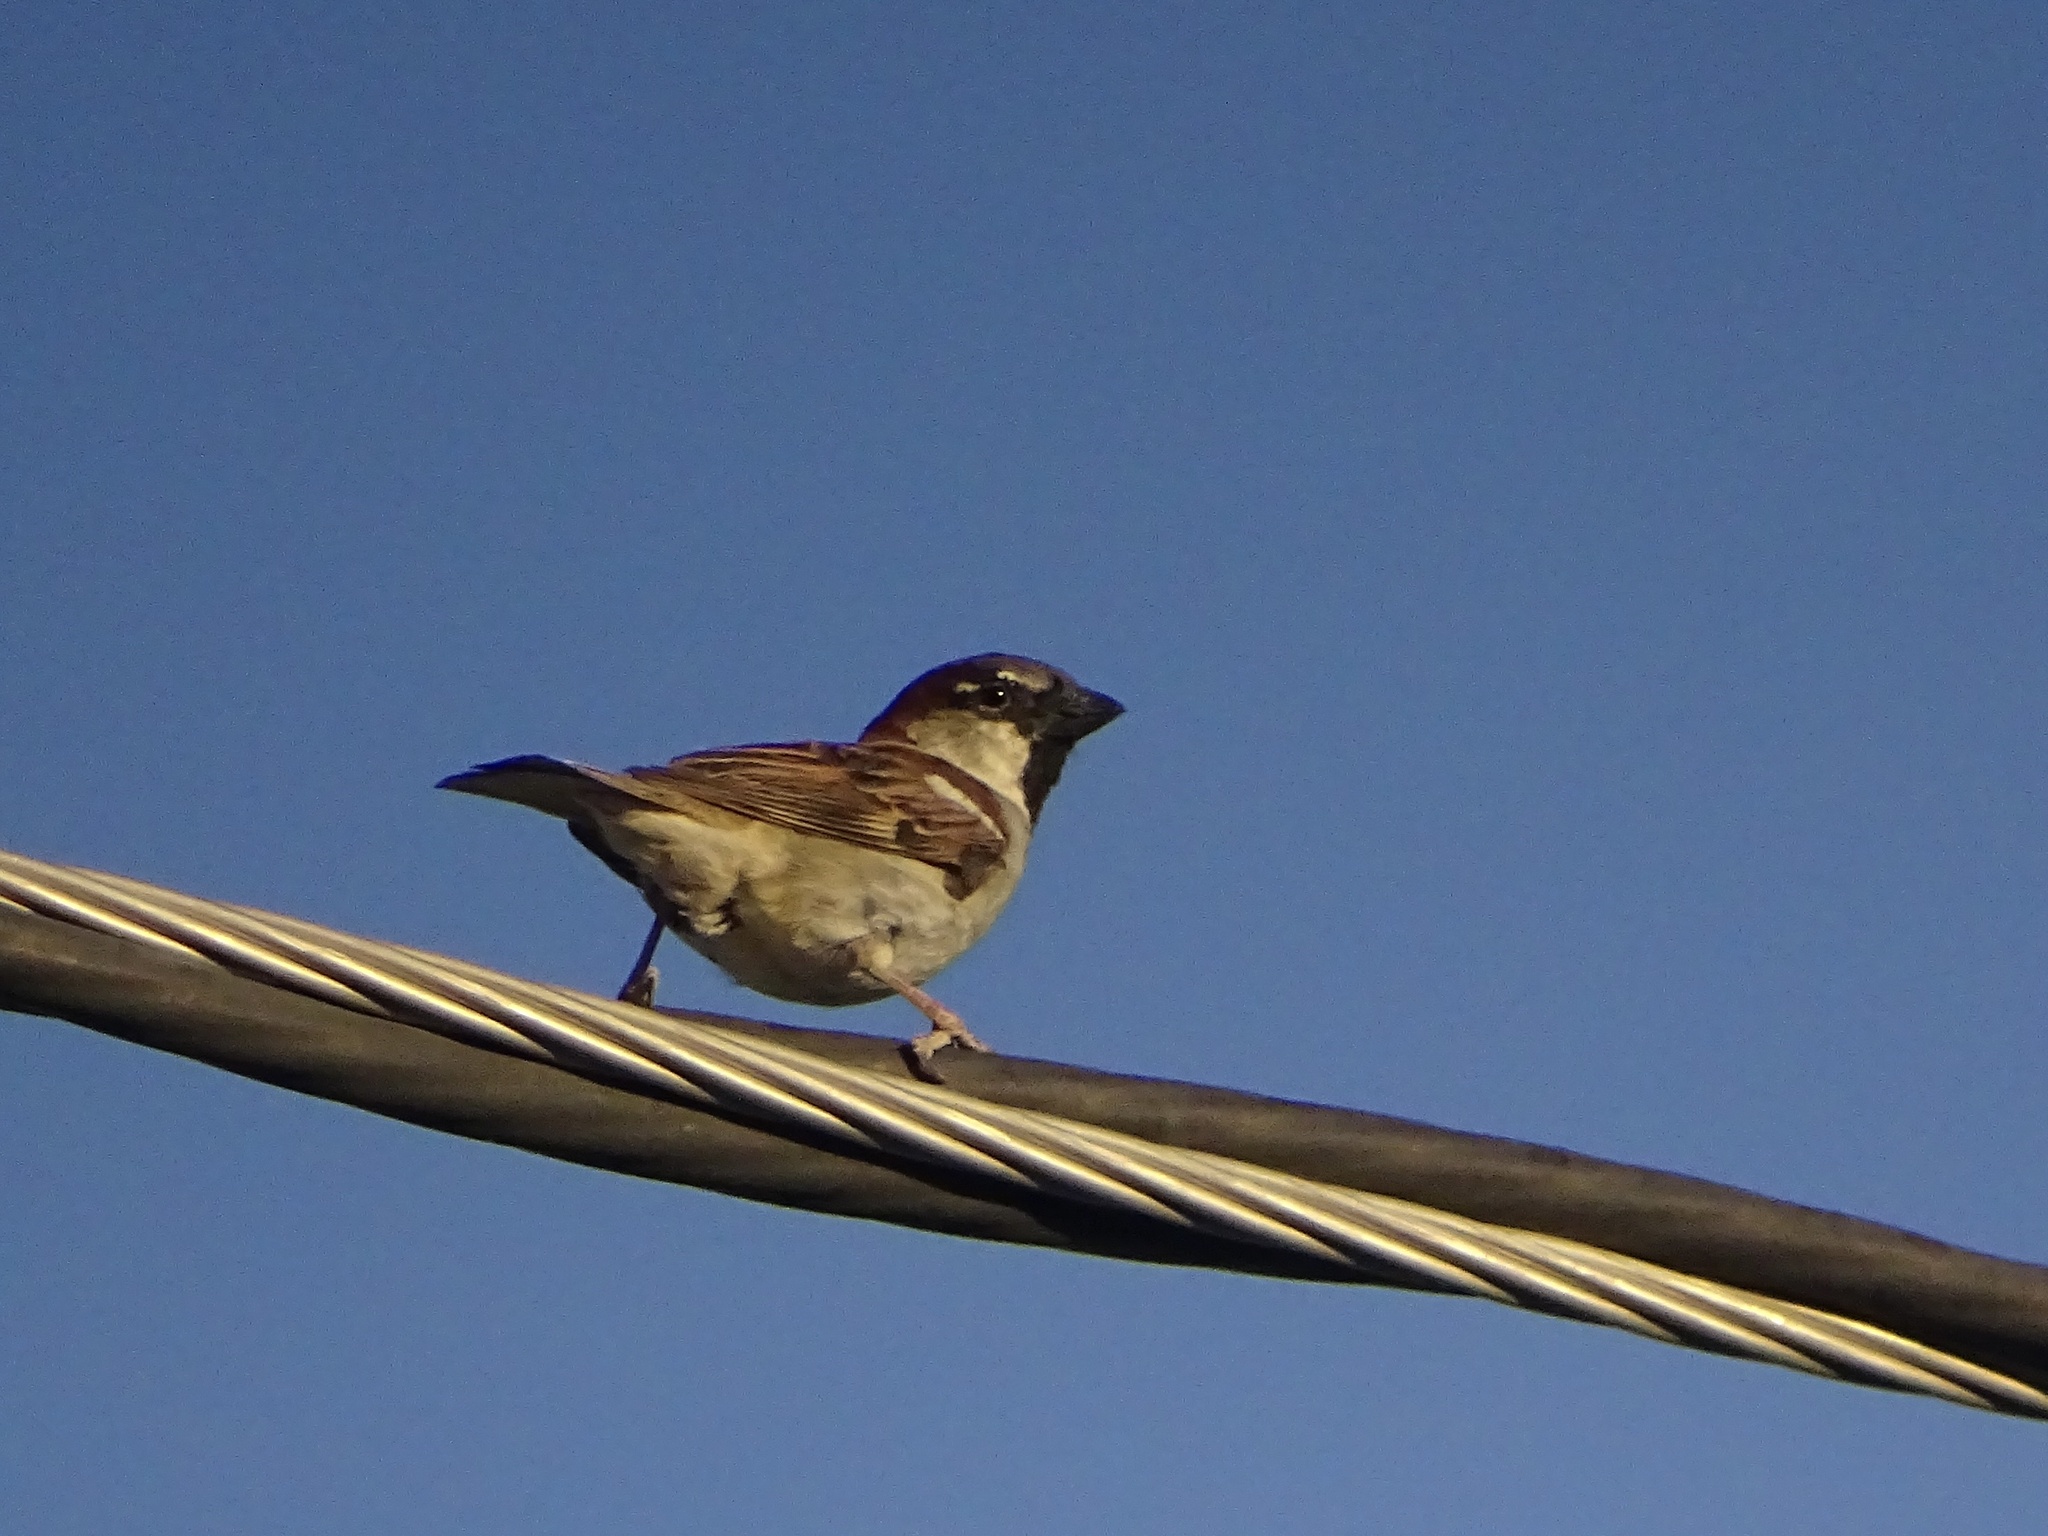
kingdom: Animalia
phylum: Chordata
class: Aves
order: Passeriformes
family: Passeridae
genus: Passer
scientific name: Passer domesticus
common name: House sparrow
